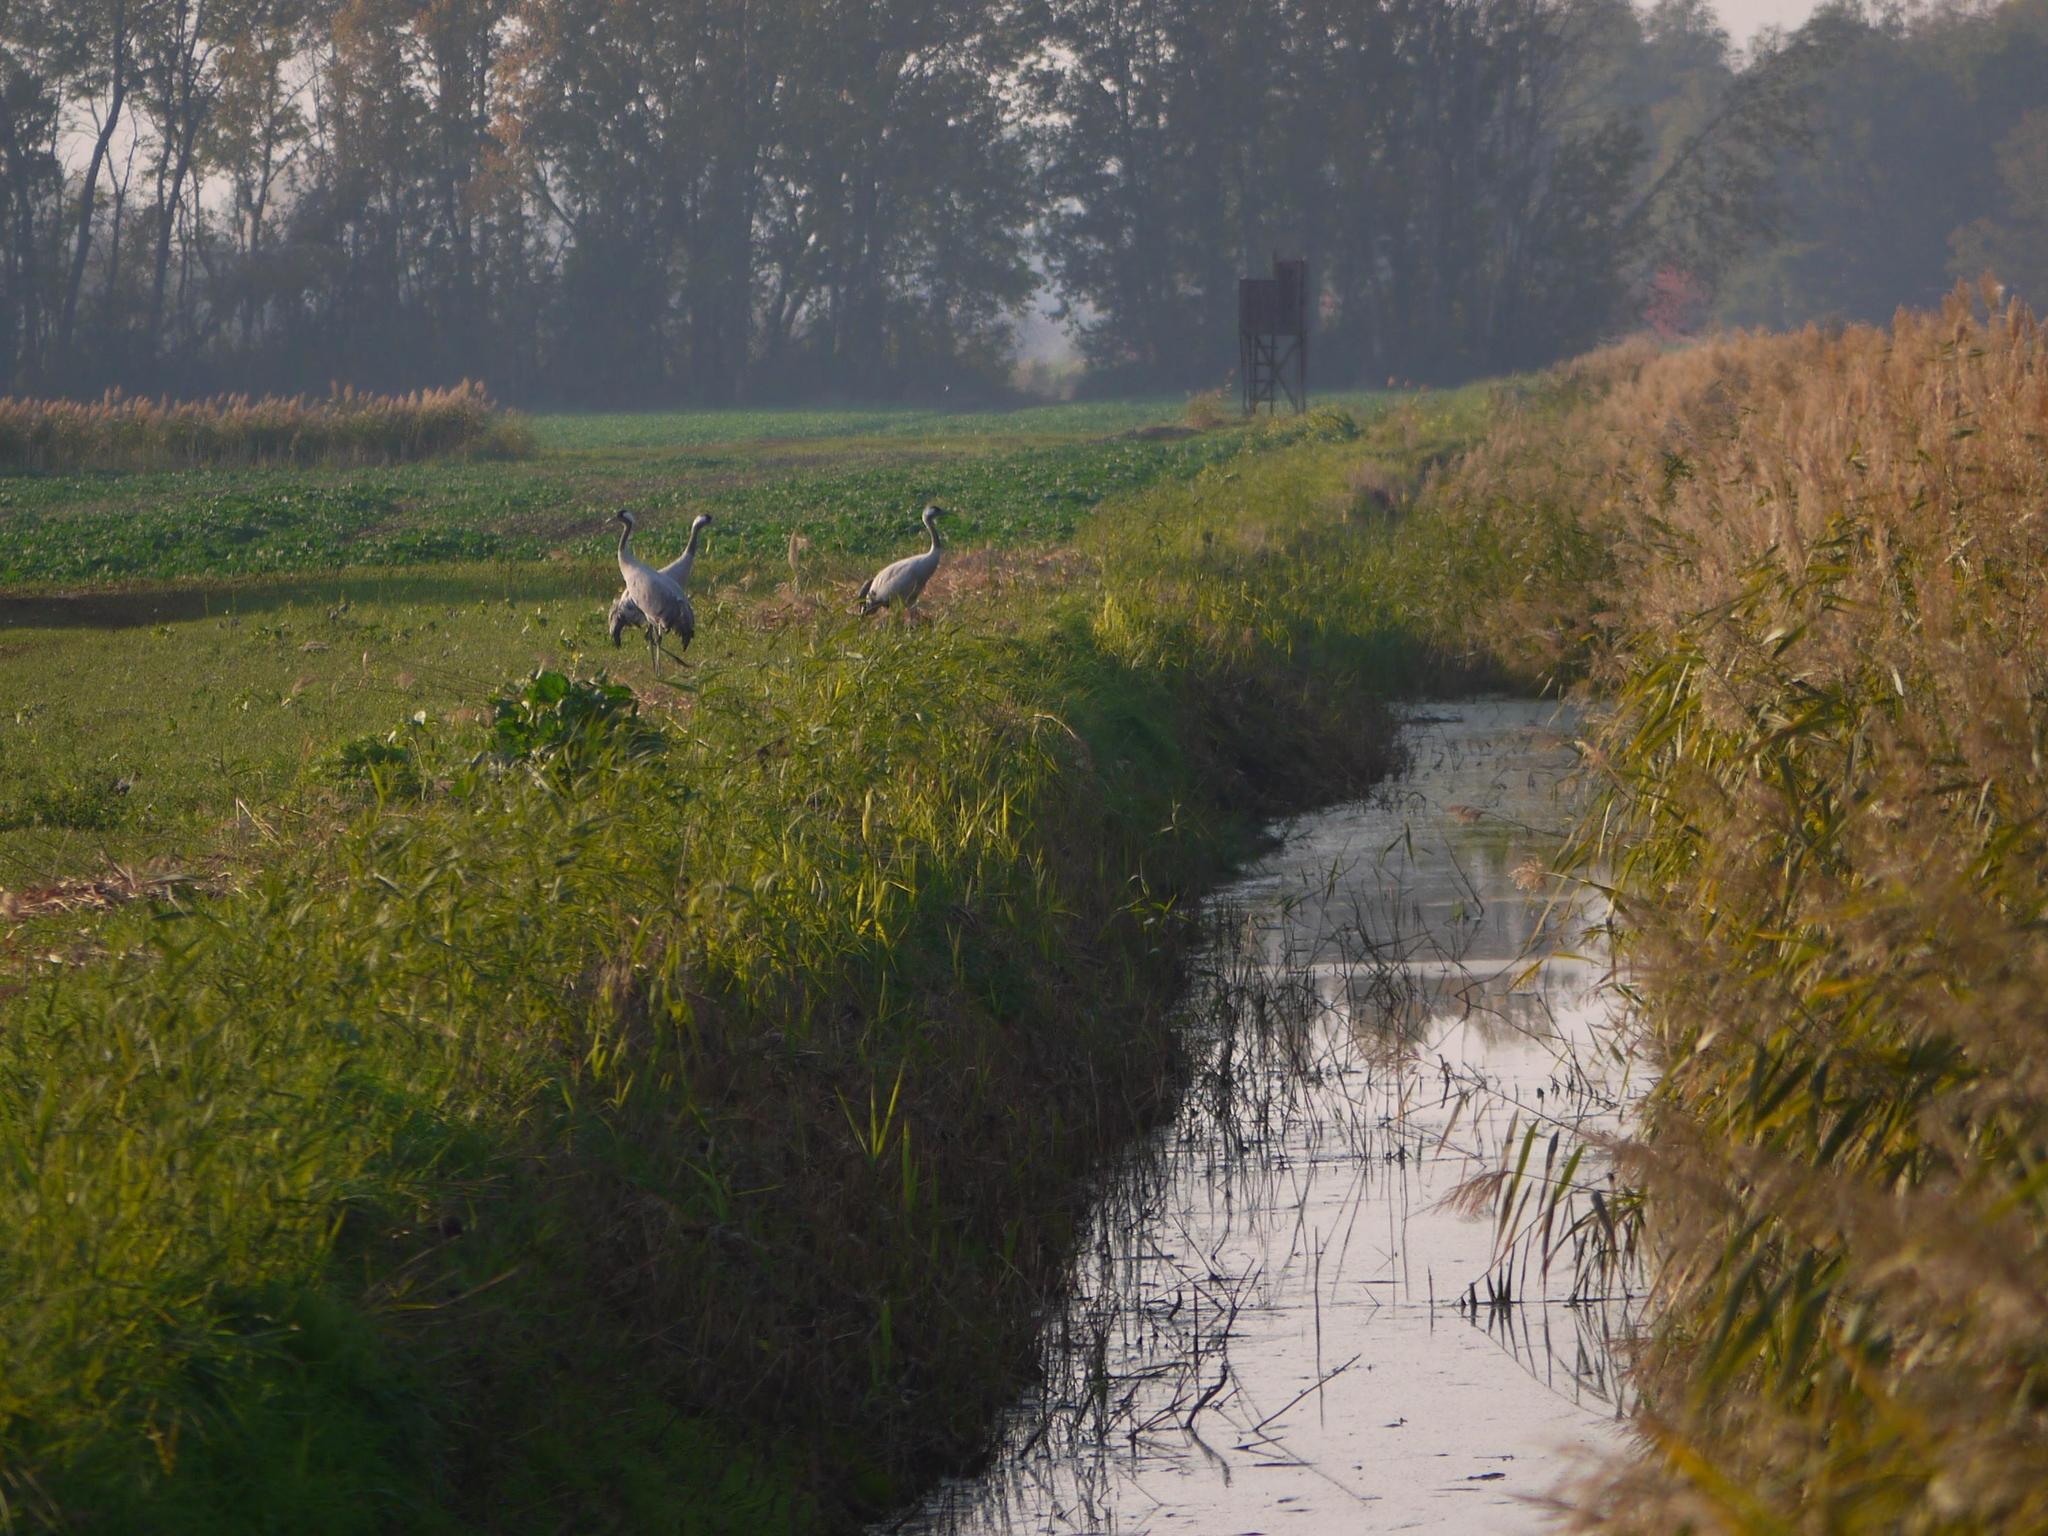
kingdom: Animalia
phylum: Chordata
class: Aves
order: Gruiformes
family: Gruidae
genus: Grus
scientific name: Grus grus
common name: Common crane
